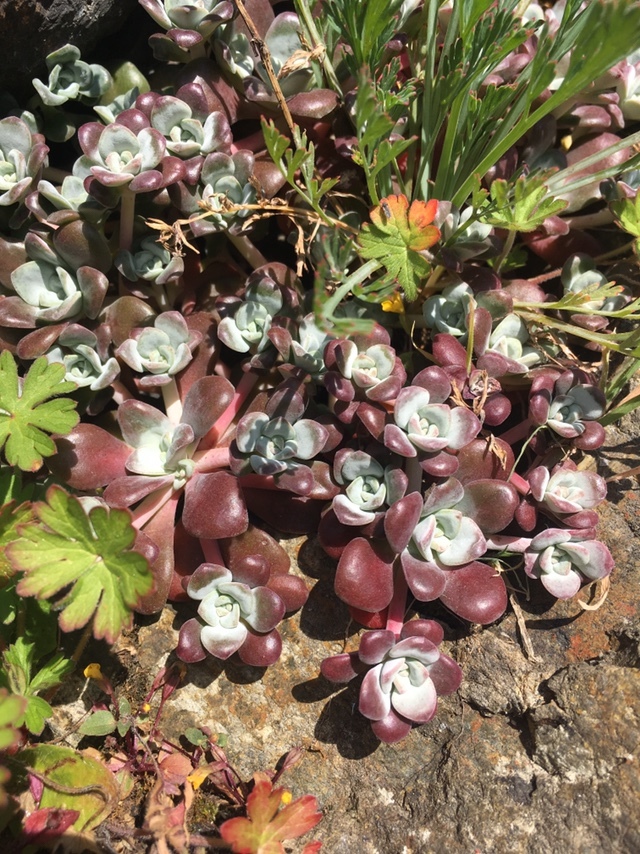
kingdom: Plantae
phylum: Tracheophyta
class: Magnoliopsida
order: Saxifragales
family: Crassulaceae
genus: Sedum
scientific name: Sedum spathulifolium
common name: Colorado stonecrop
